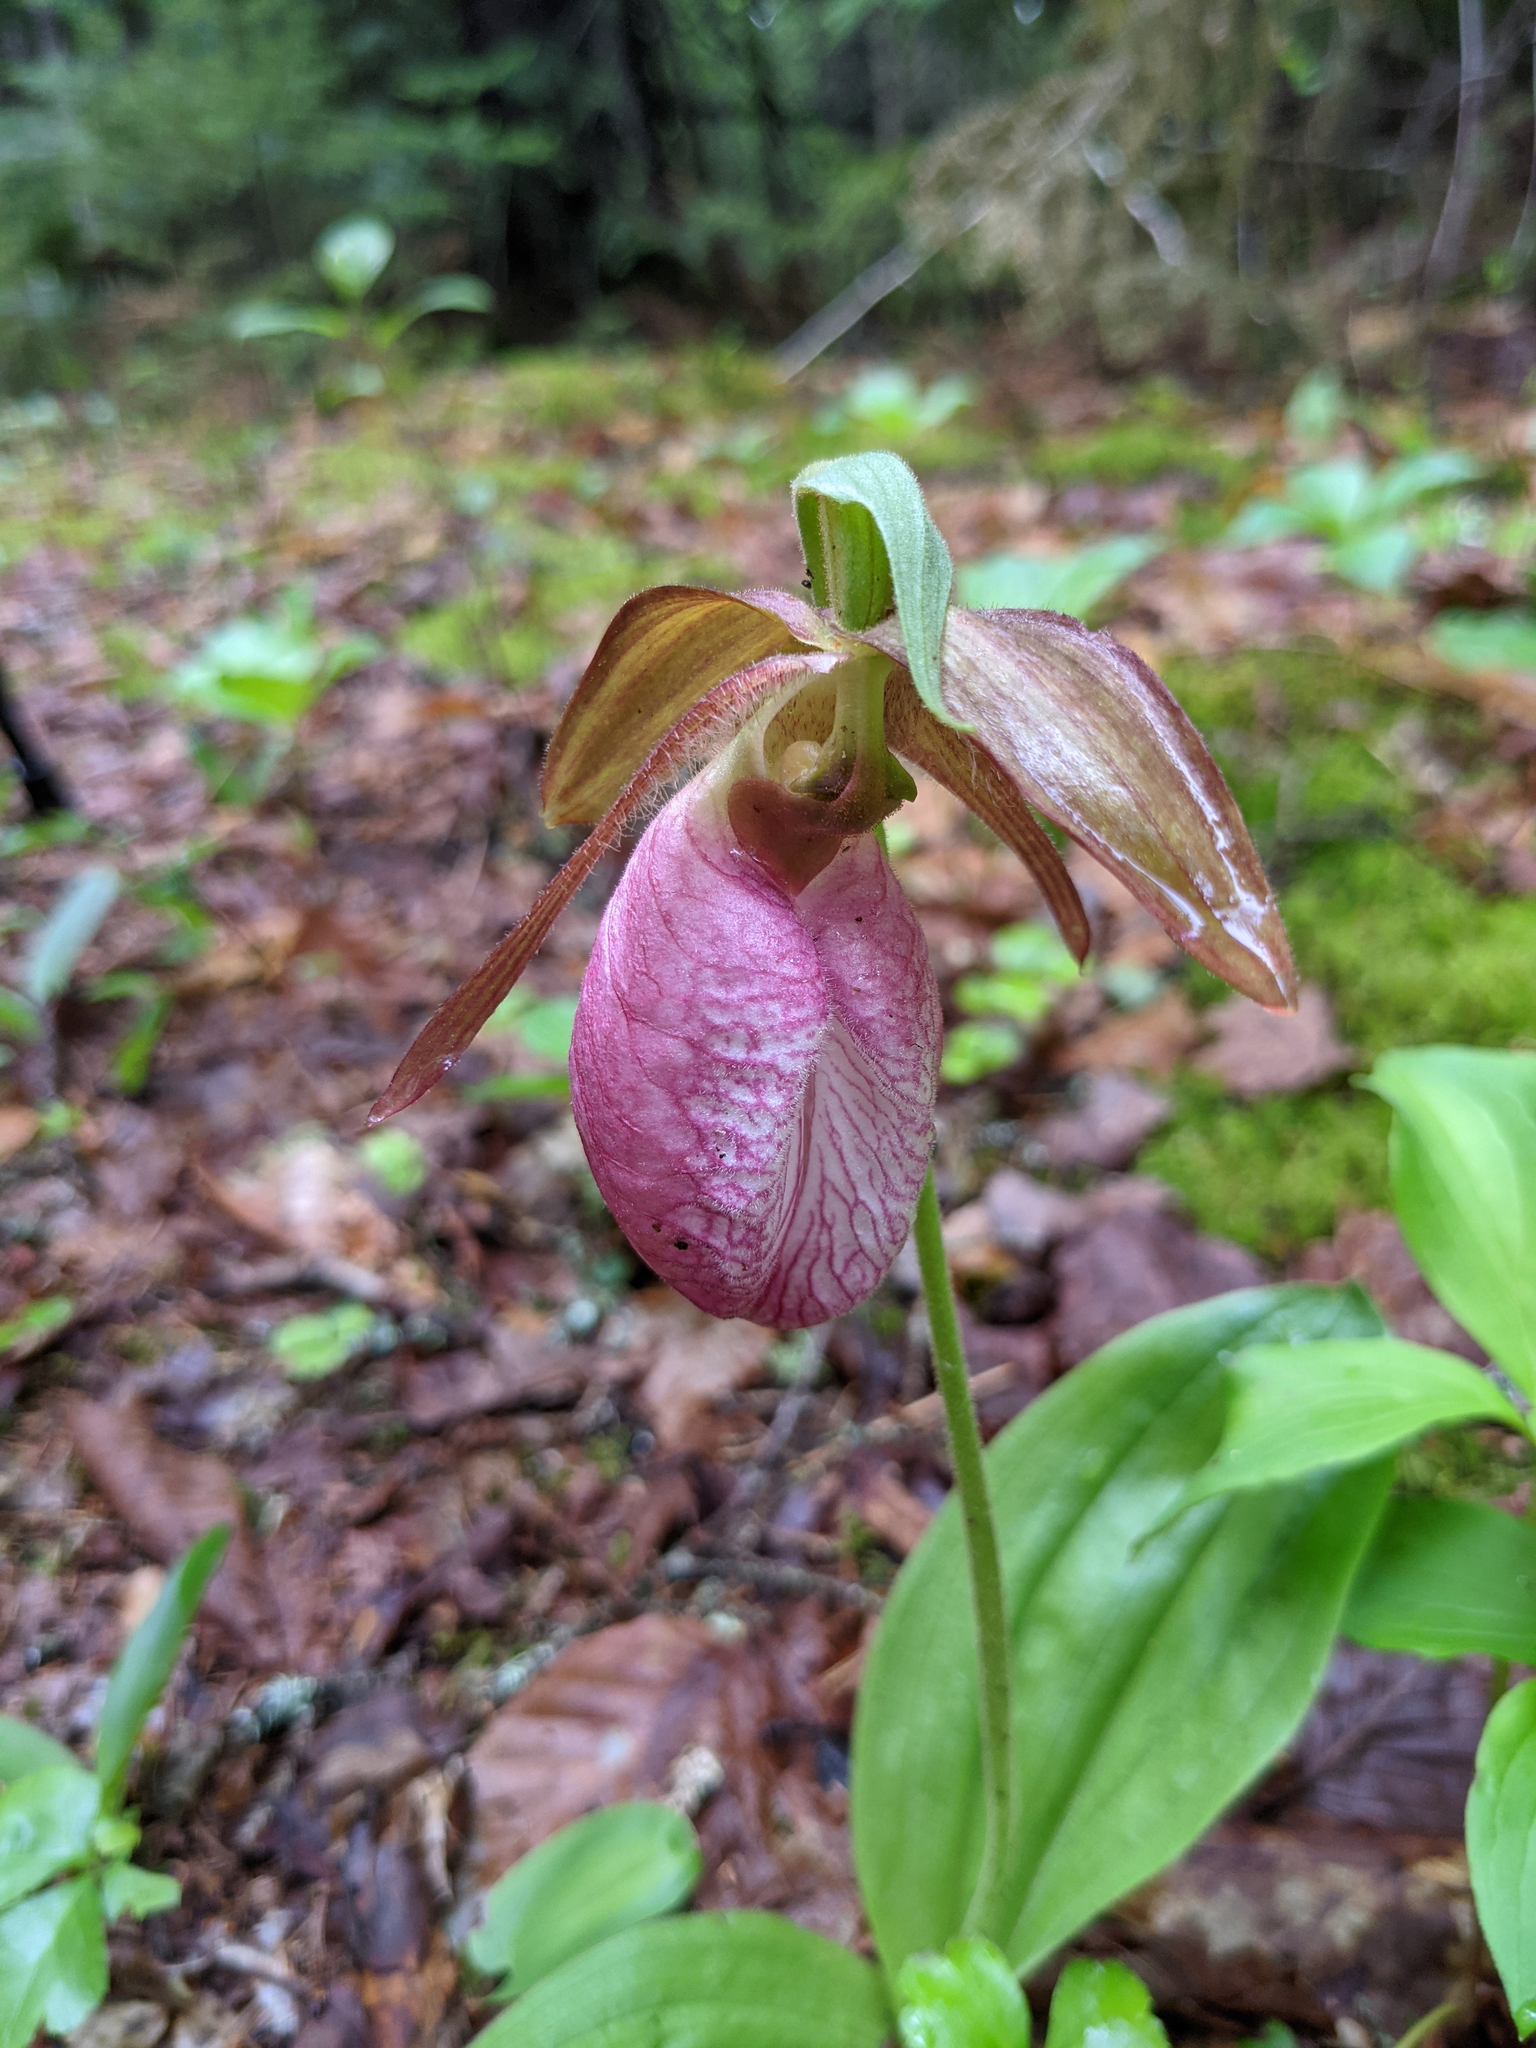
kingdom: Plantae
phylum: Tracheophyta
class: Liliopsida
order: Asparagales
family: Orchidaceae
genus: Cypripedium
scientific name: Cypripedium acaule
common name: Pink lady's-slipper
